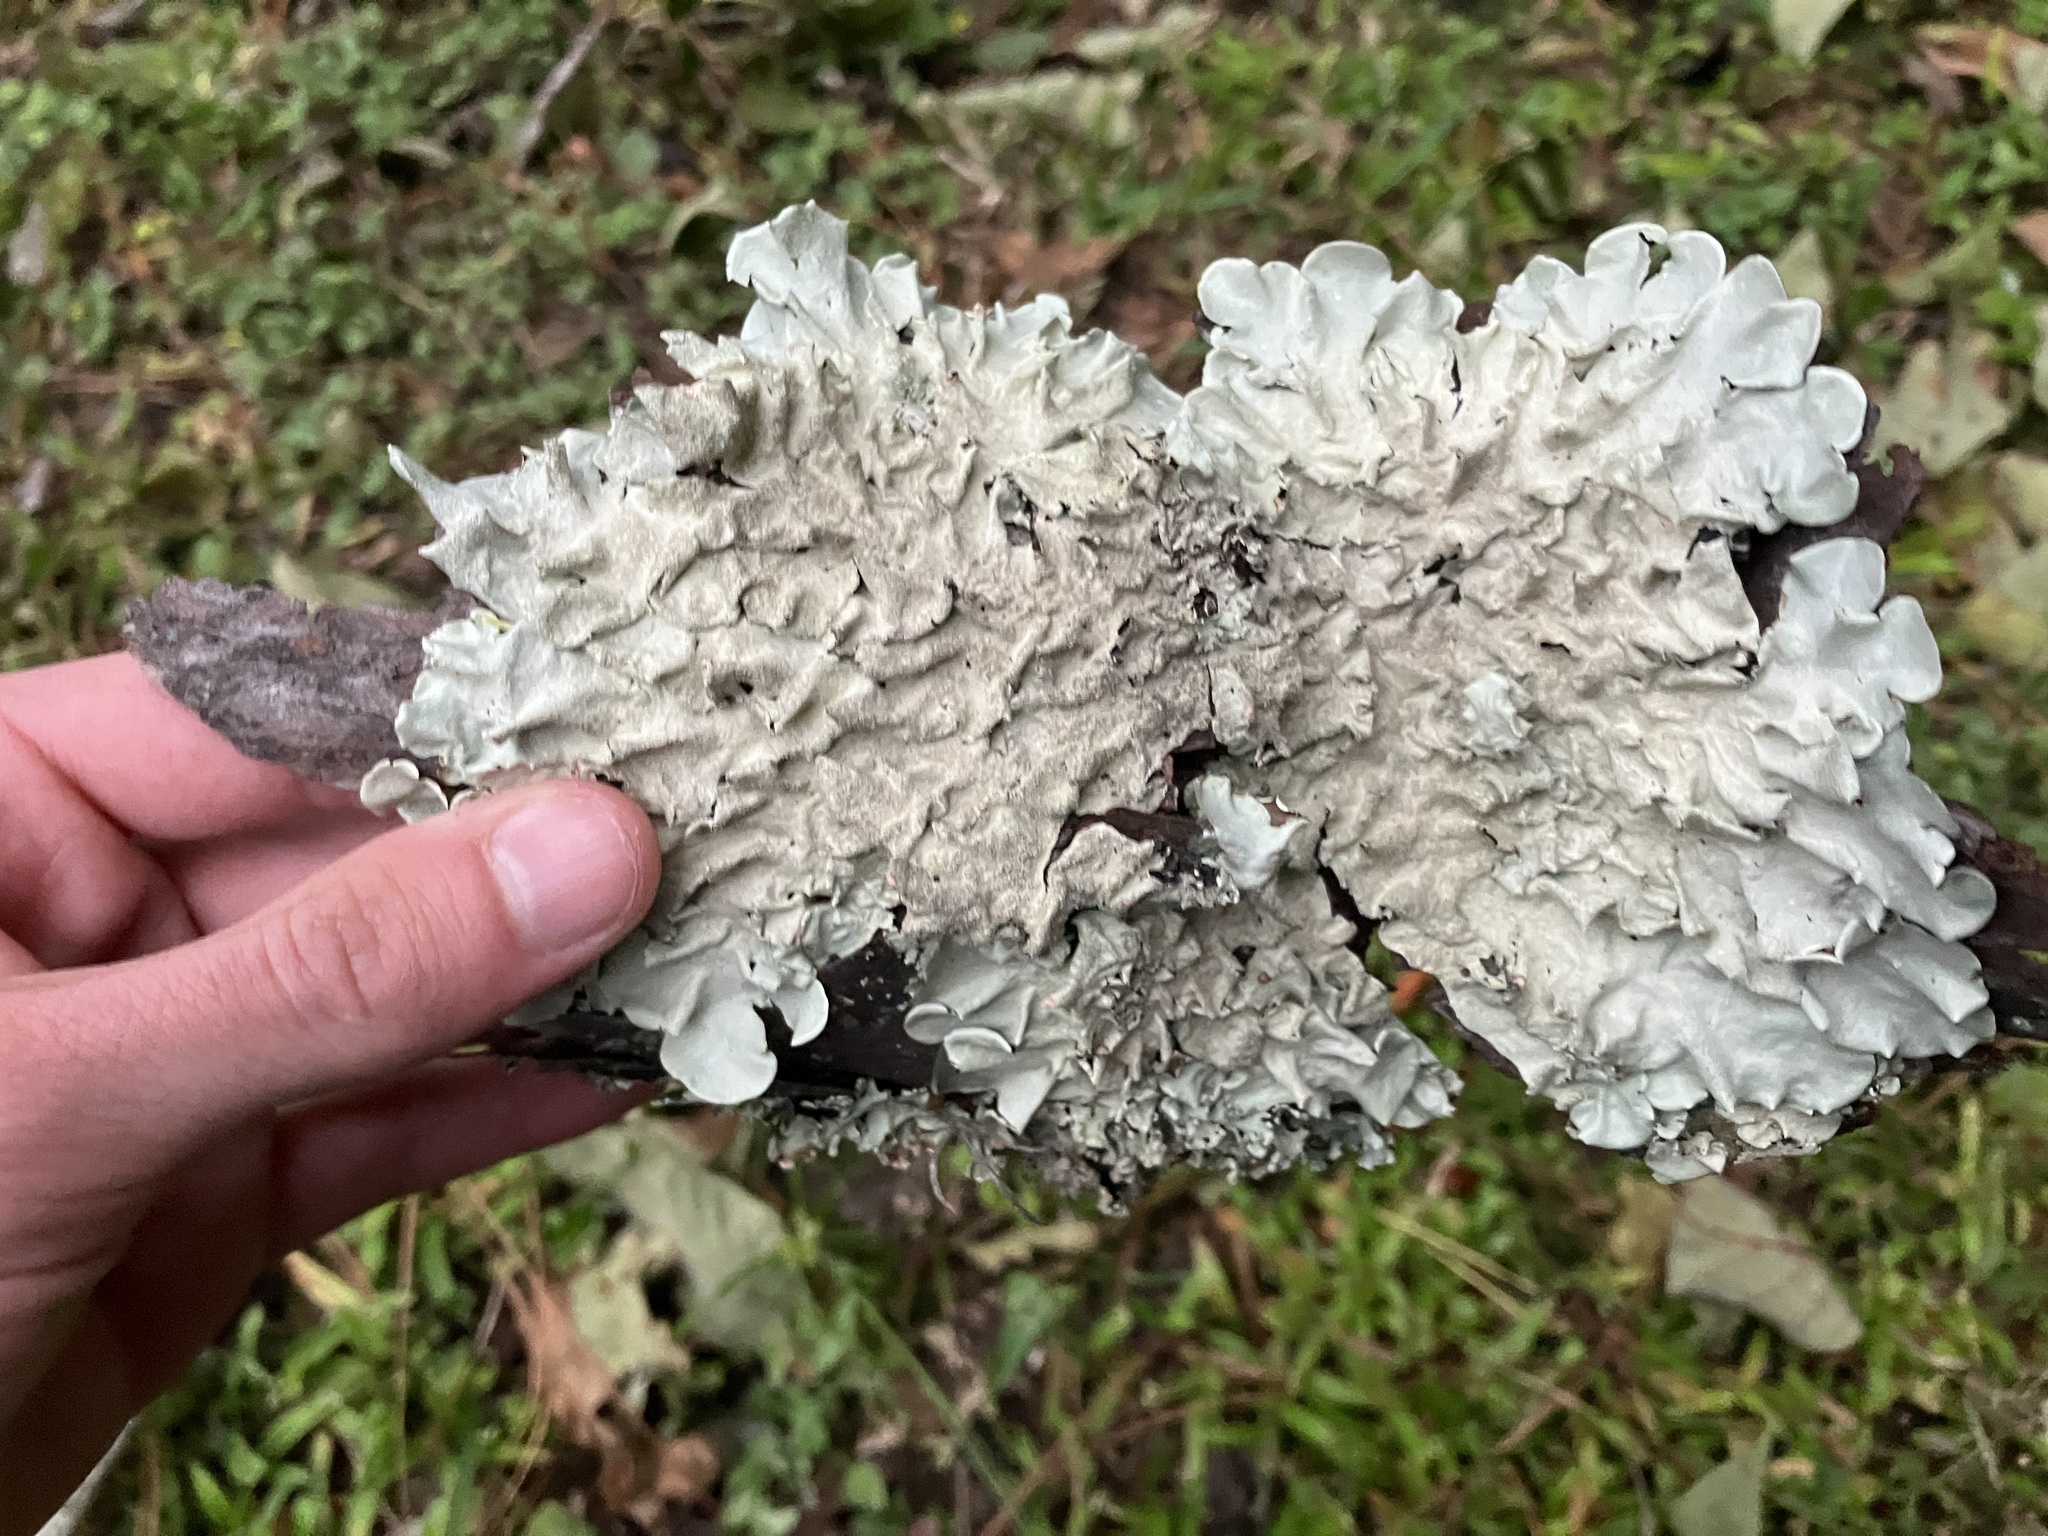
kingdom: Fungi
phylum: Ascomycota
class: Lecanoromycetes
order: Lecanorales
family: Parmeliaceae
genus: Parmotrema
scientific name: Parmotrema tinctorum
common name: Old gray ruffles
